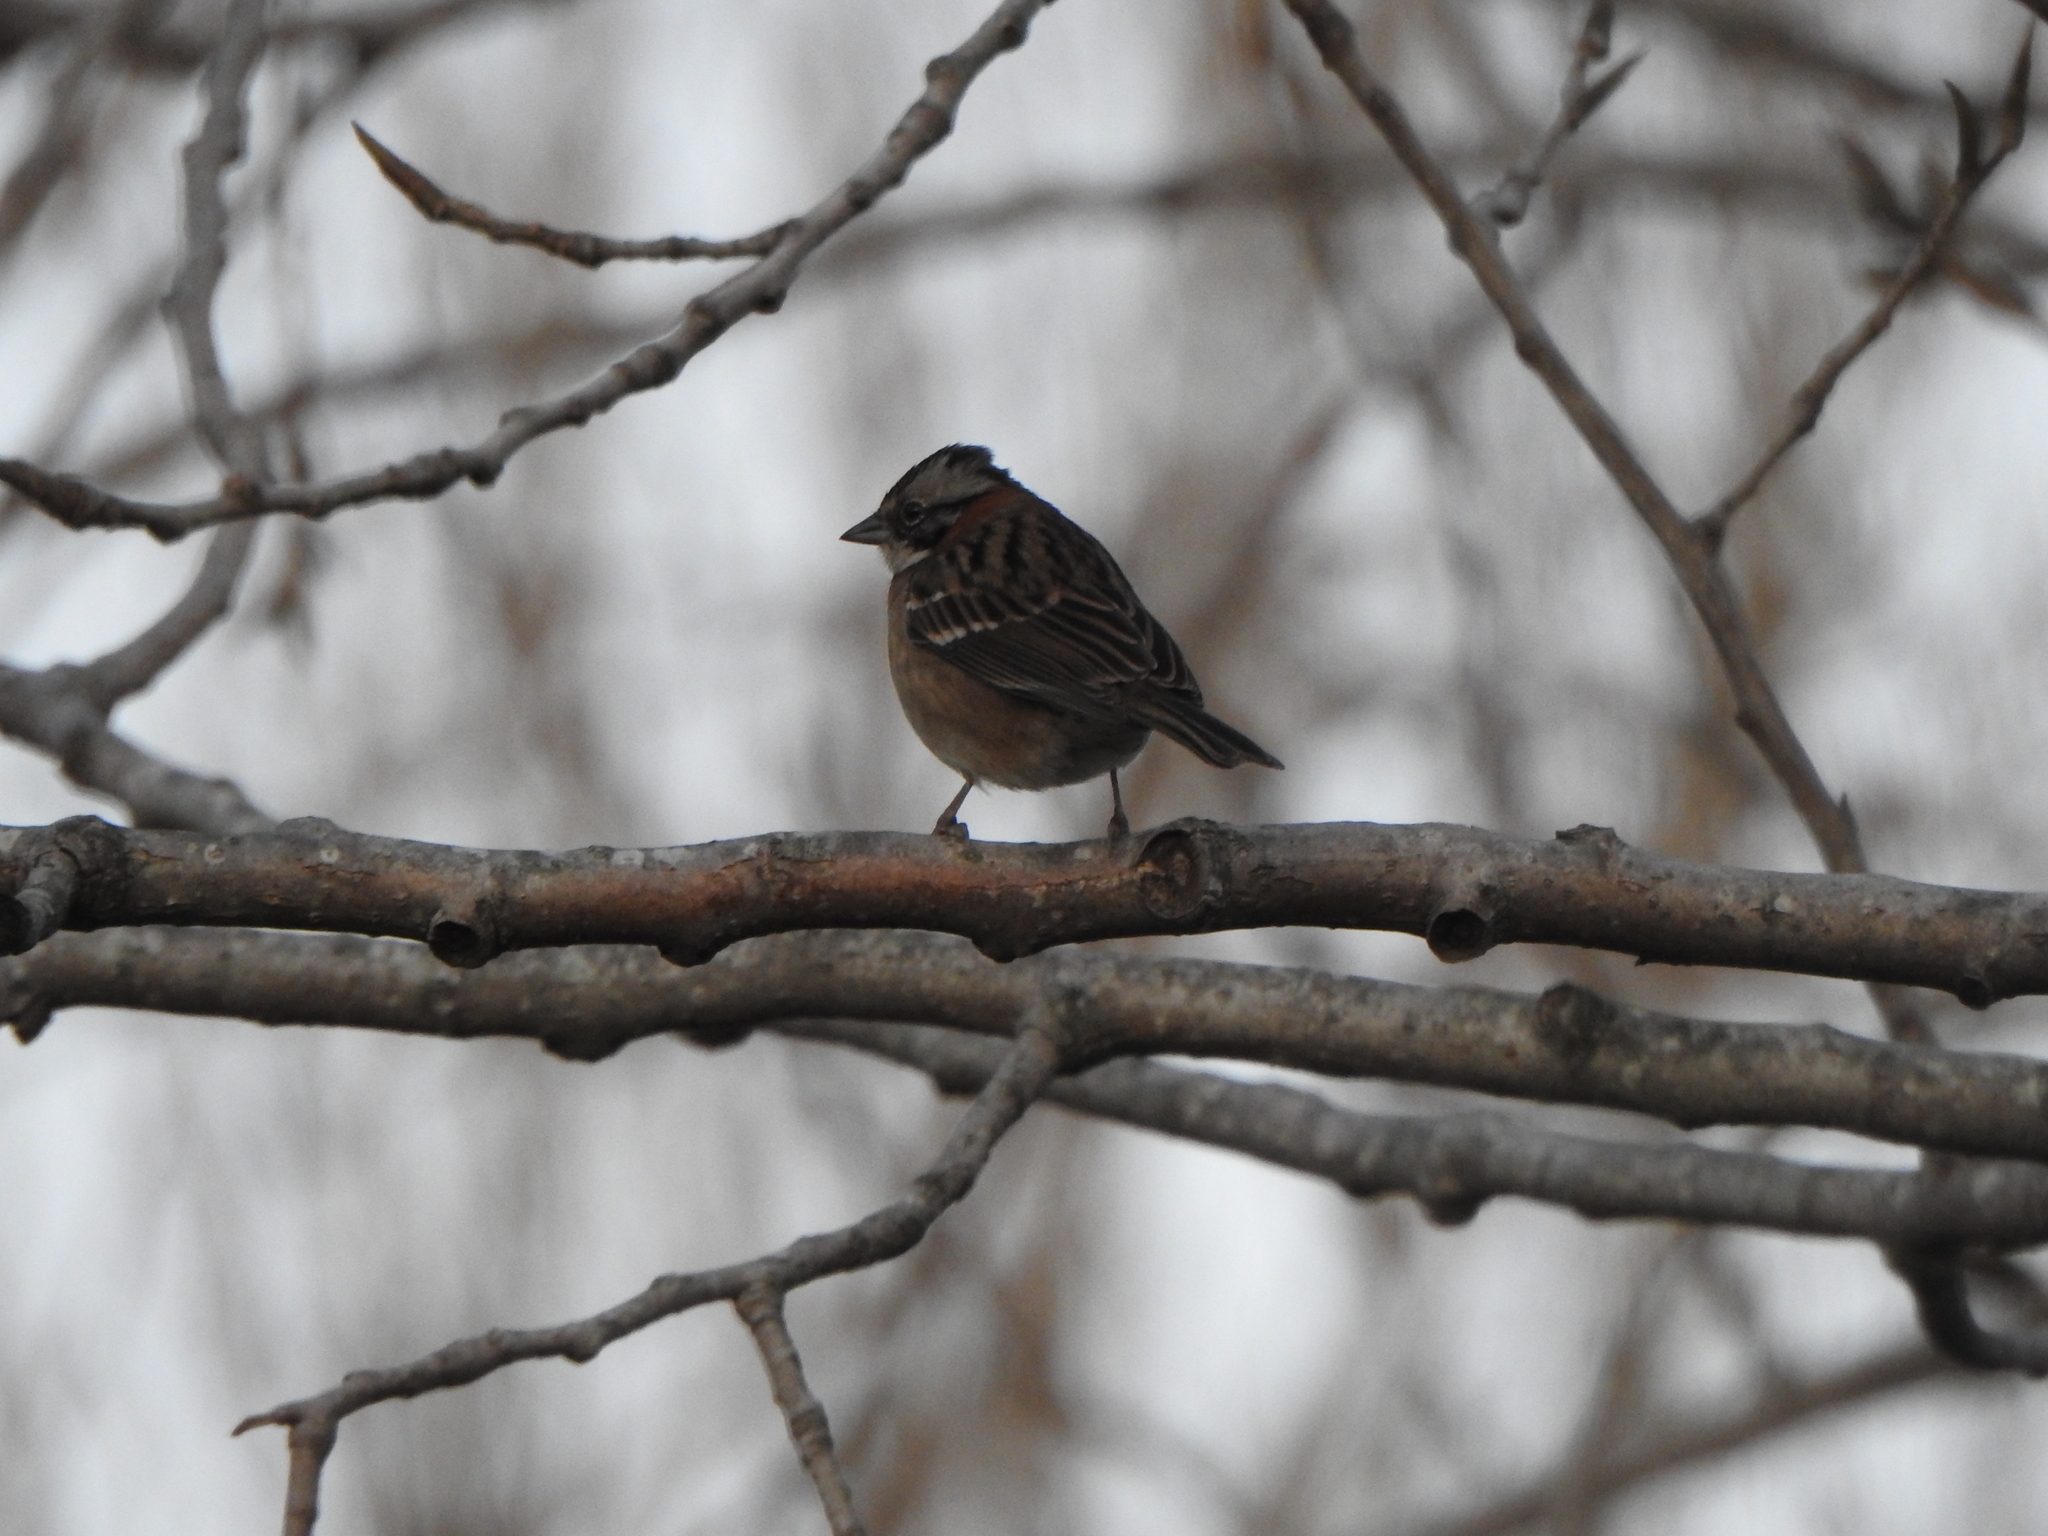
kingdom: Animalia
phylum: Chordata
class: Aves
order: Passeriformes
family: Passerellidae
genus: Zonotrichia
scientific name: Zonotrichia capensis
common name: Rufous-collared sparrow
